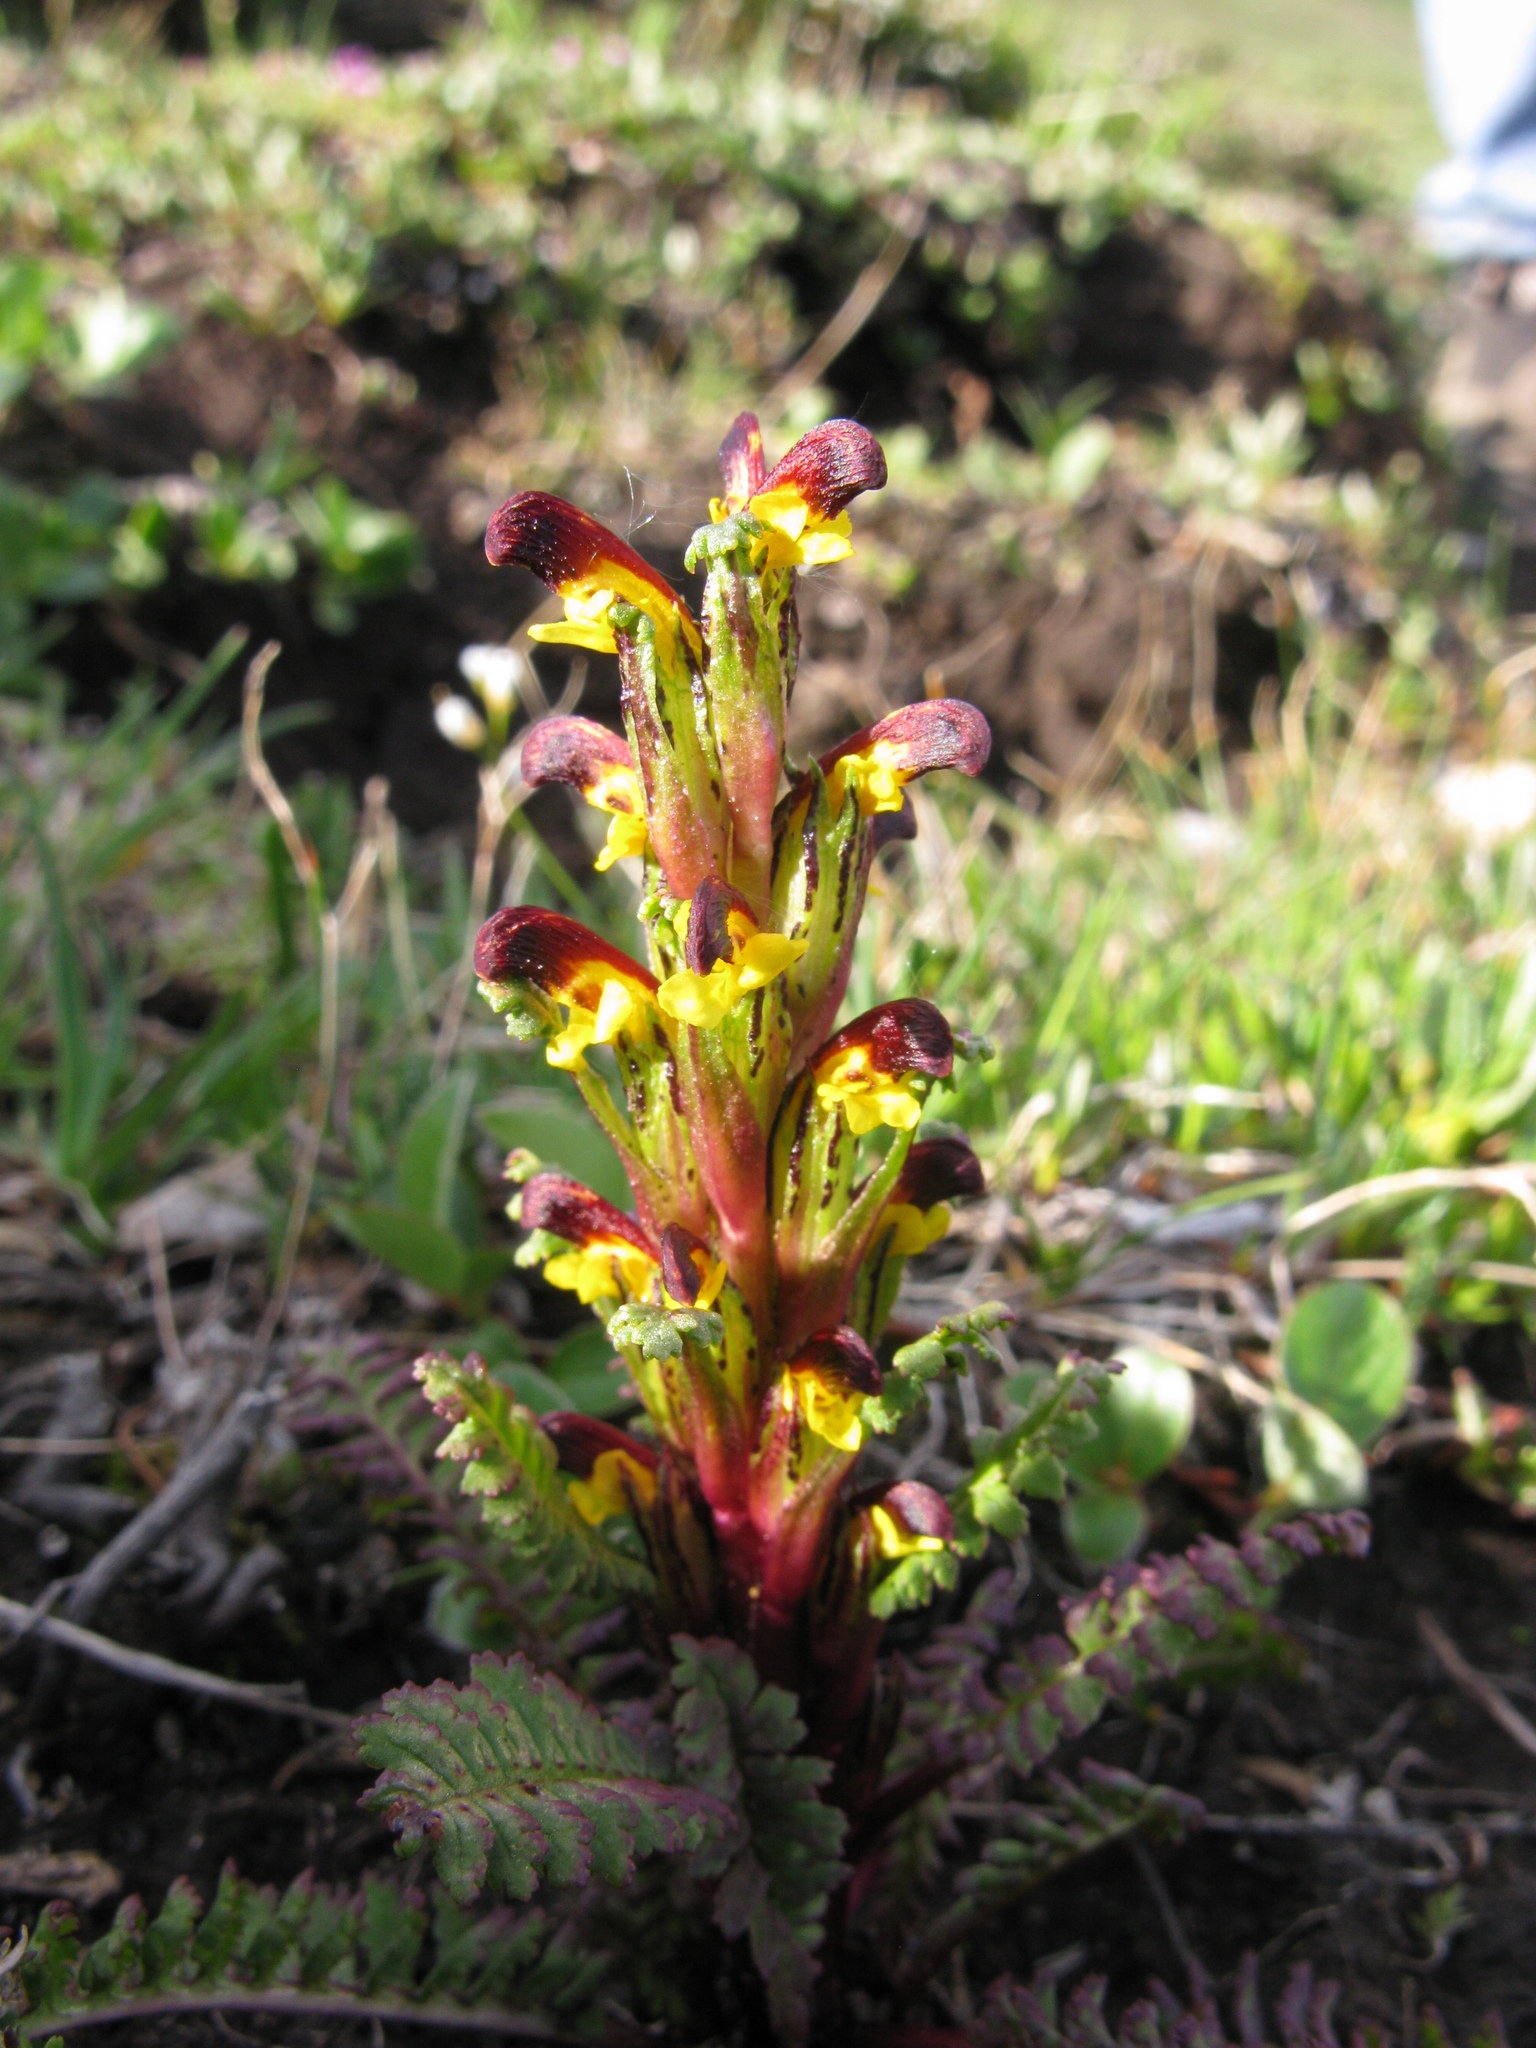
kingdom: Plantae
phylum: Tracheophyta
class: Magnoliopsida
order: Lamiales
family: Orobanchaceae
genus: Pedicularis
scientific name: Pedicularis flammea
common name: Flame-coloured lousewort
